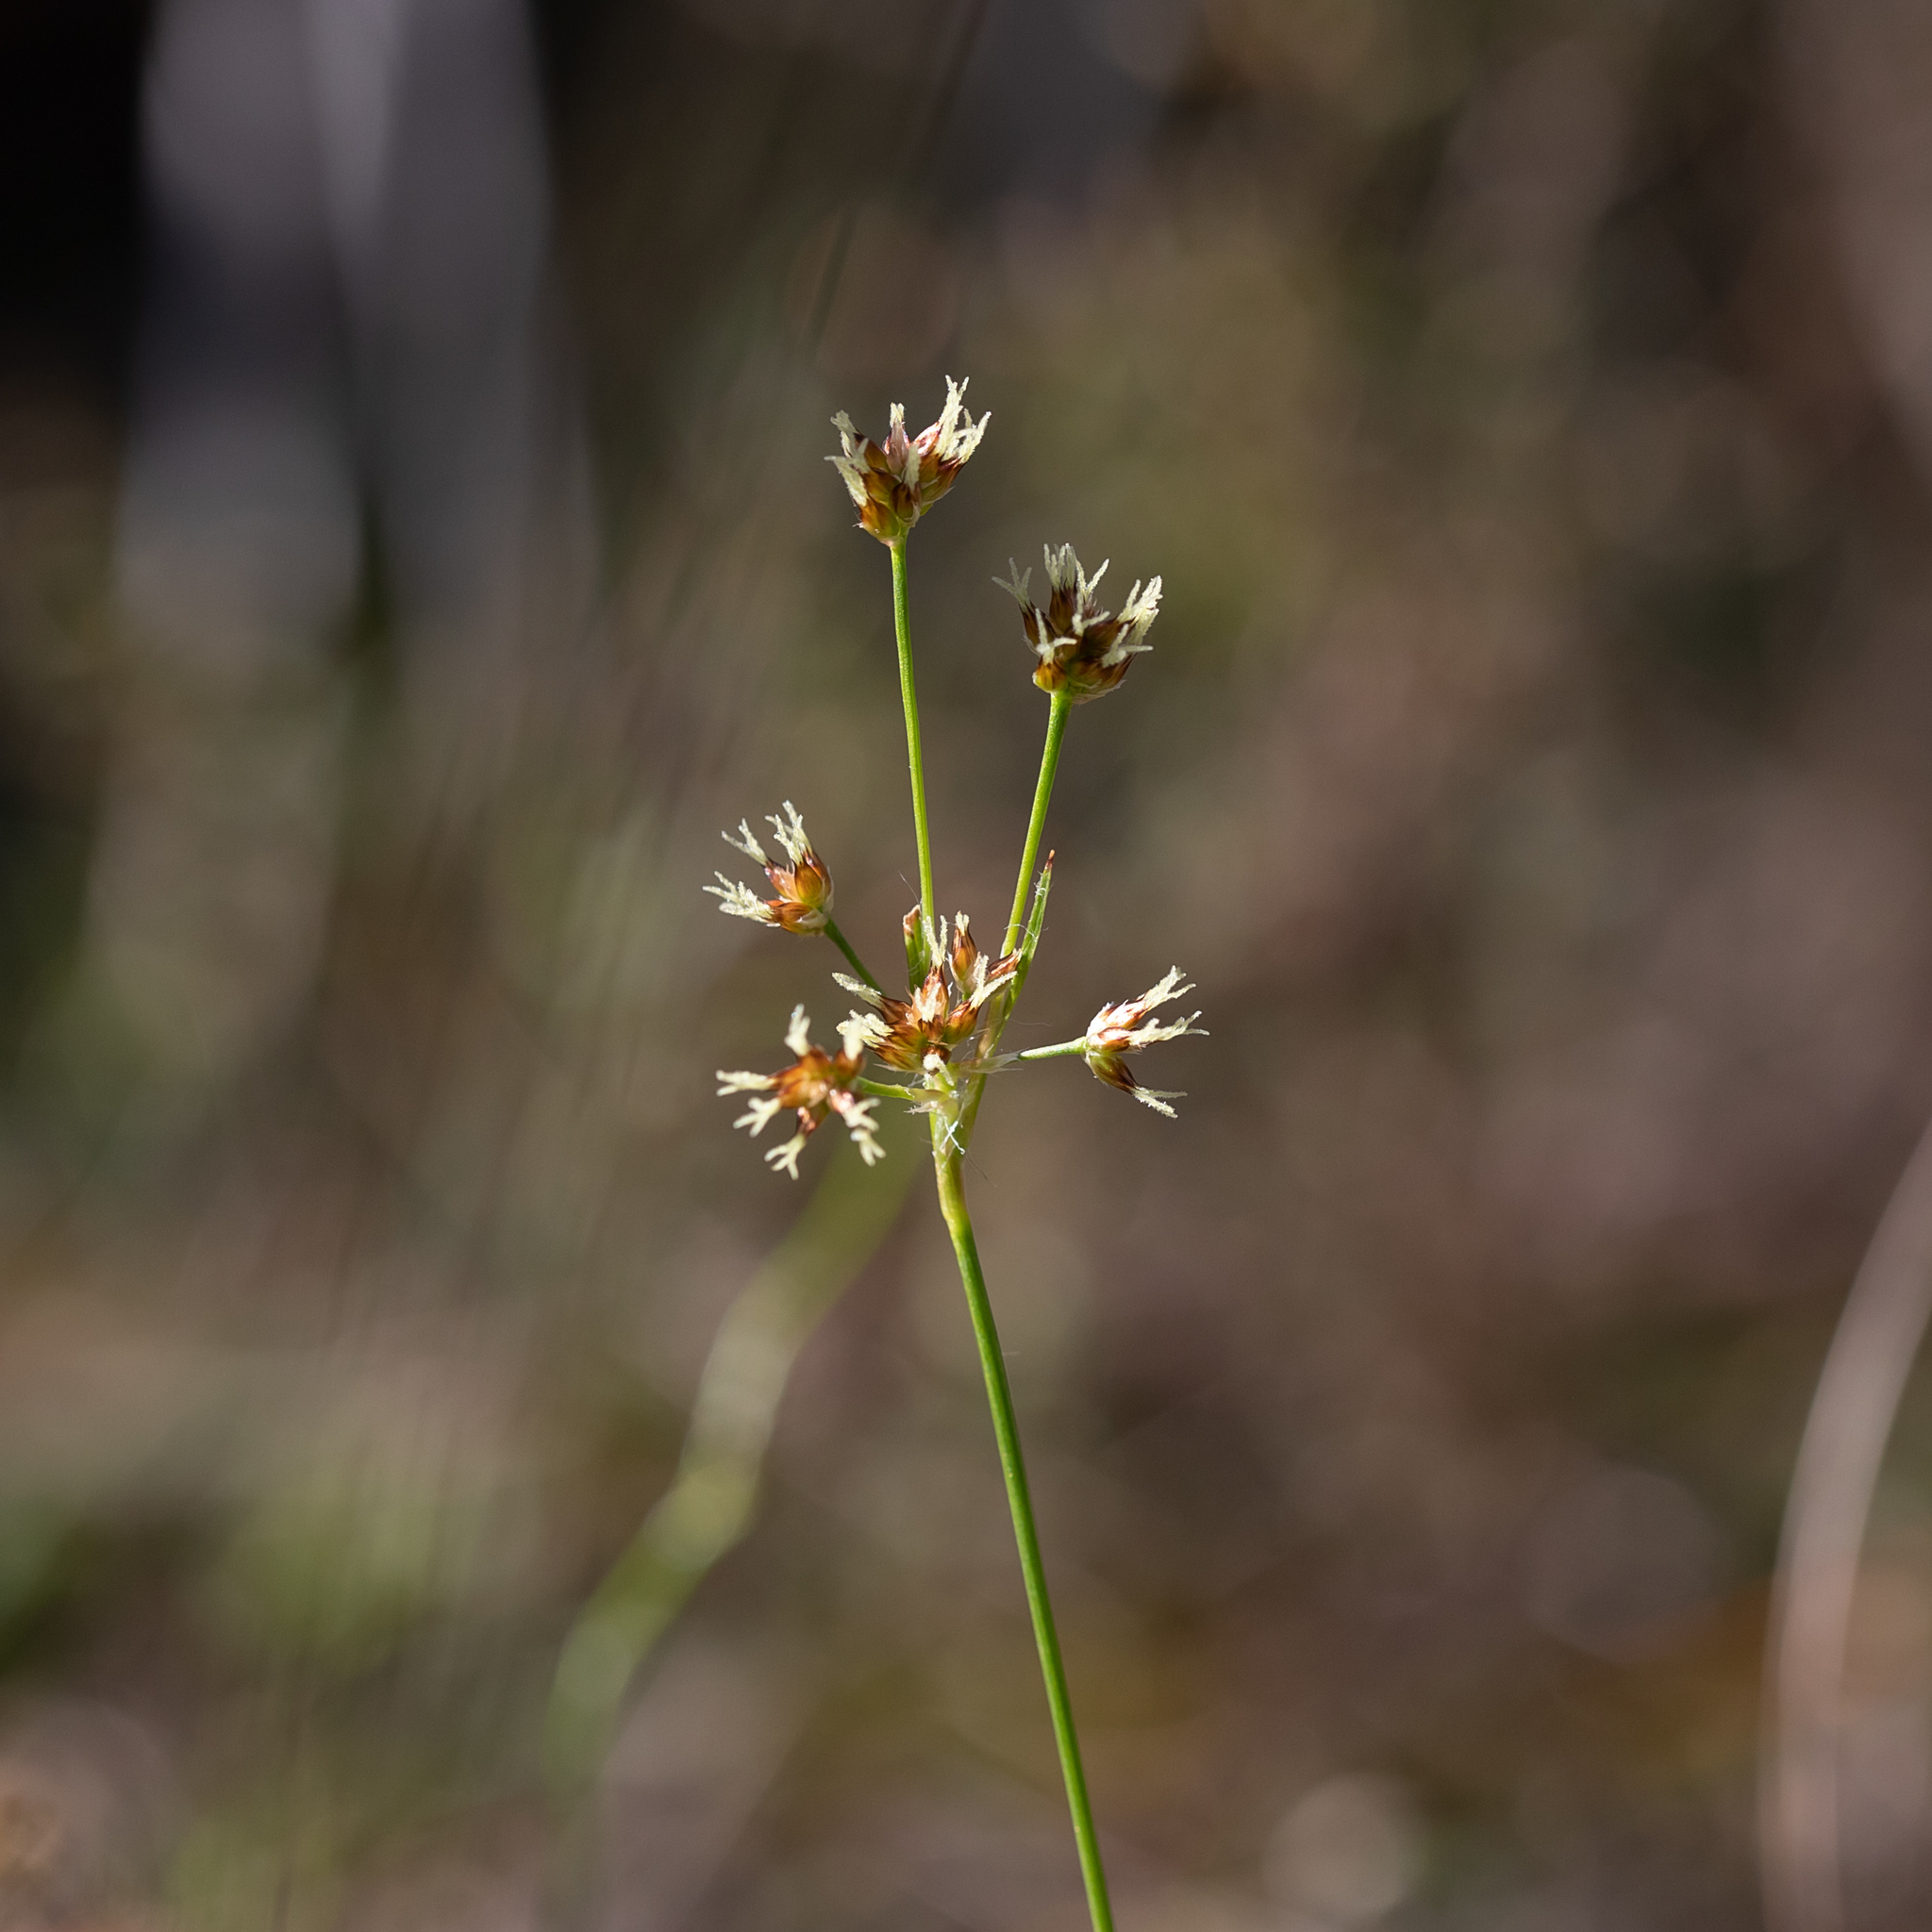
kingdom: Plantae
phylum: Tracheophyta
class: Liliopsida
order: Poales
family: Juncaceae
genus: Luzula
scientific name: Luzula meridionalis
